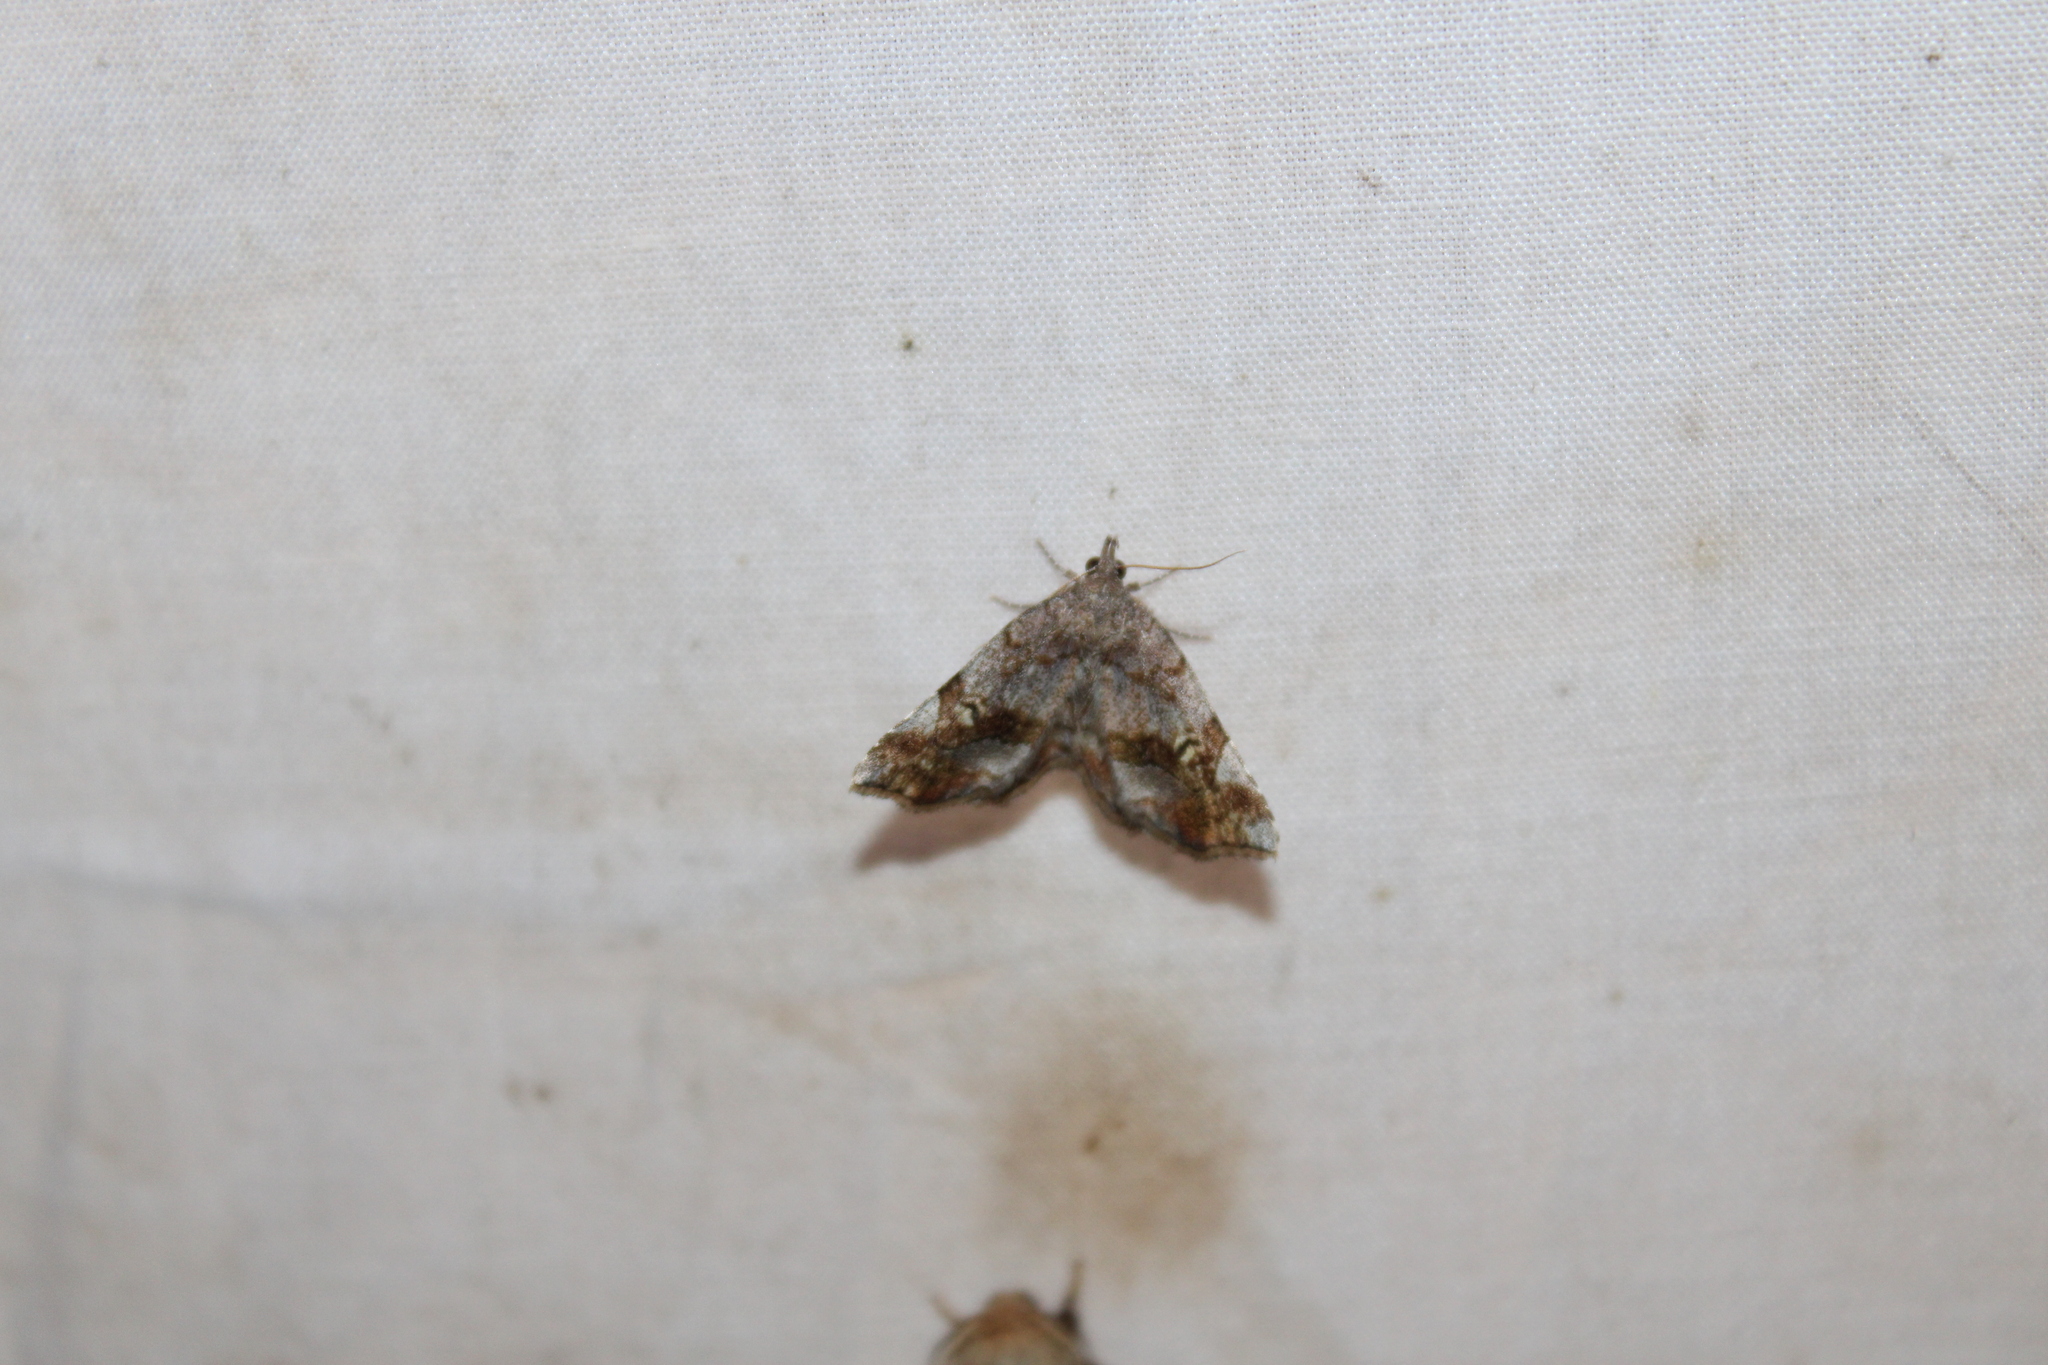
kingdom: Animalia
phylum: Arthropoda
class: Insecta
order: Lepidoptera
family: Erebidae
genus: Pangrapta
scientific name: Pangrapta decoralis
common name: Decorated owlet
